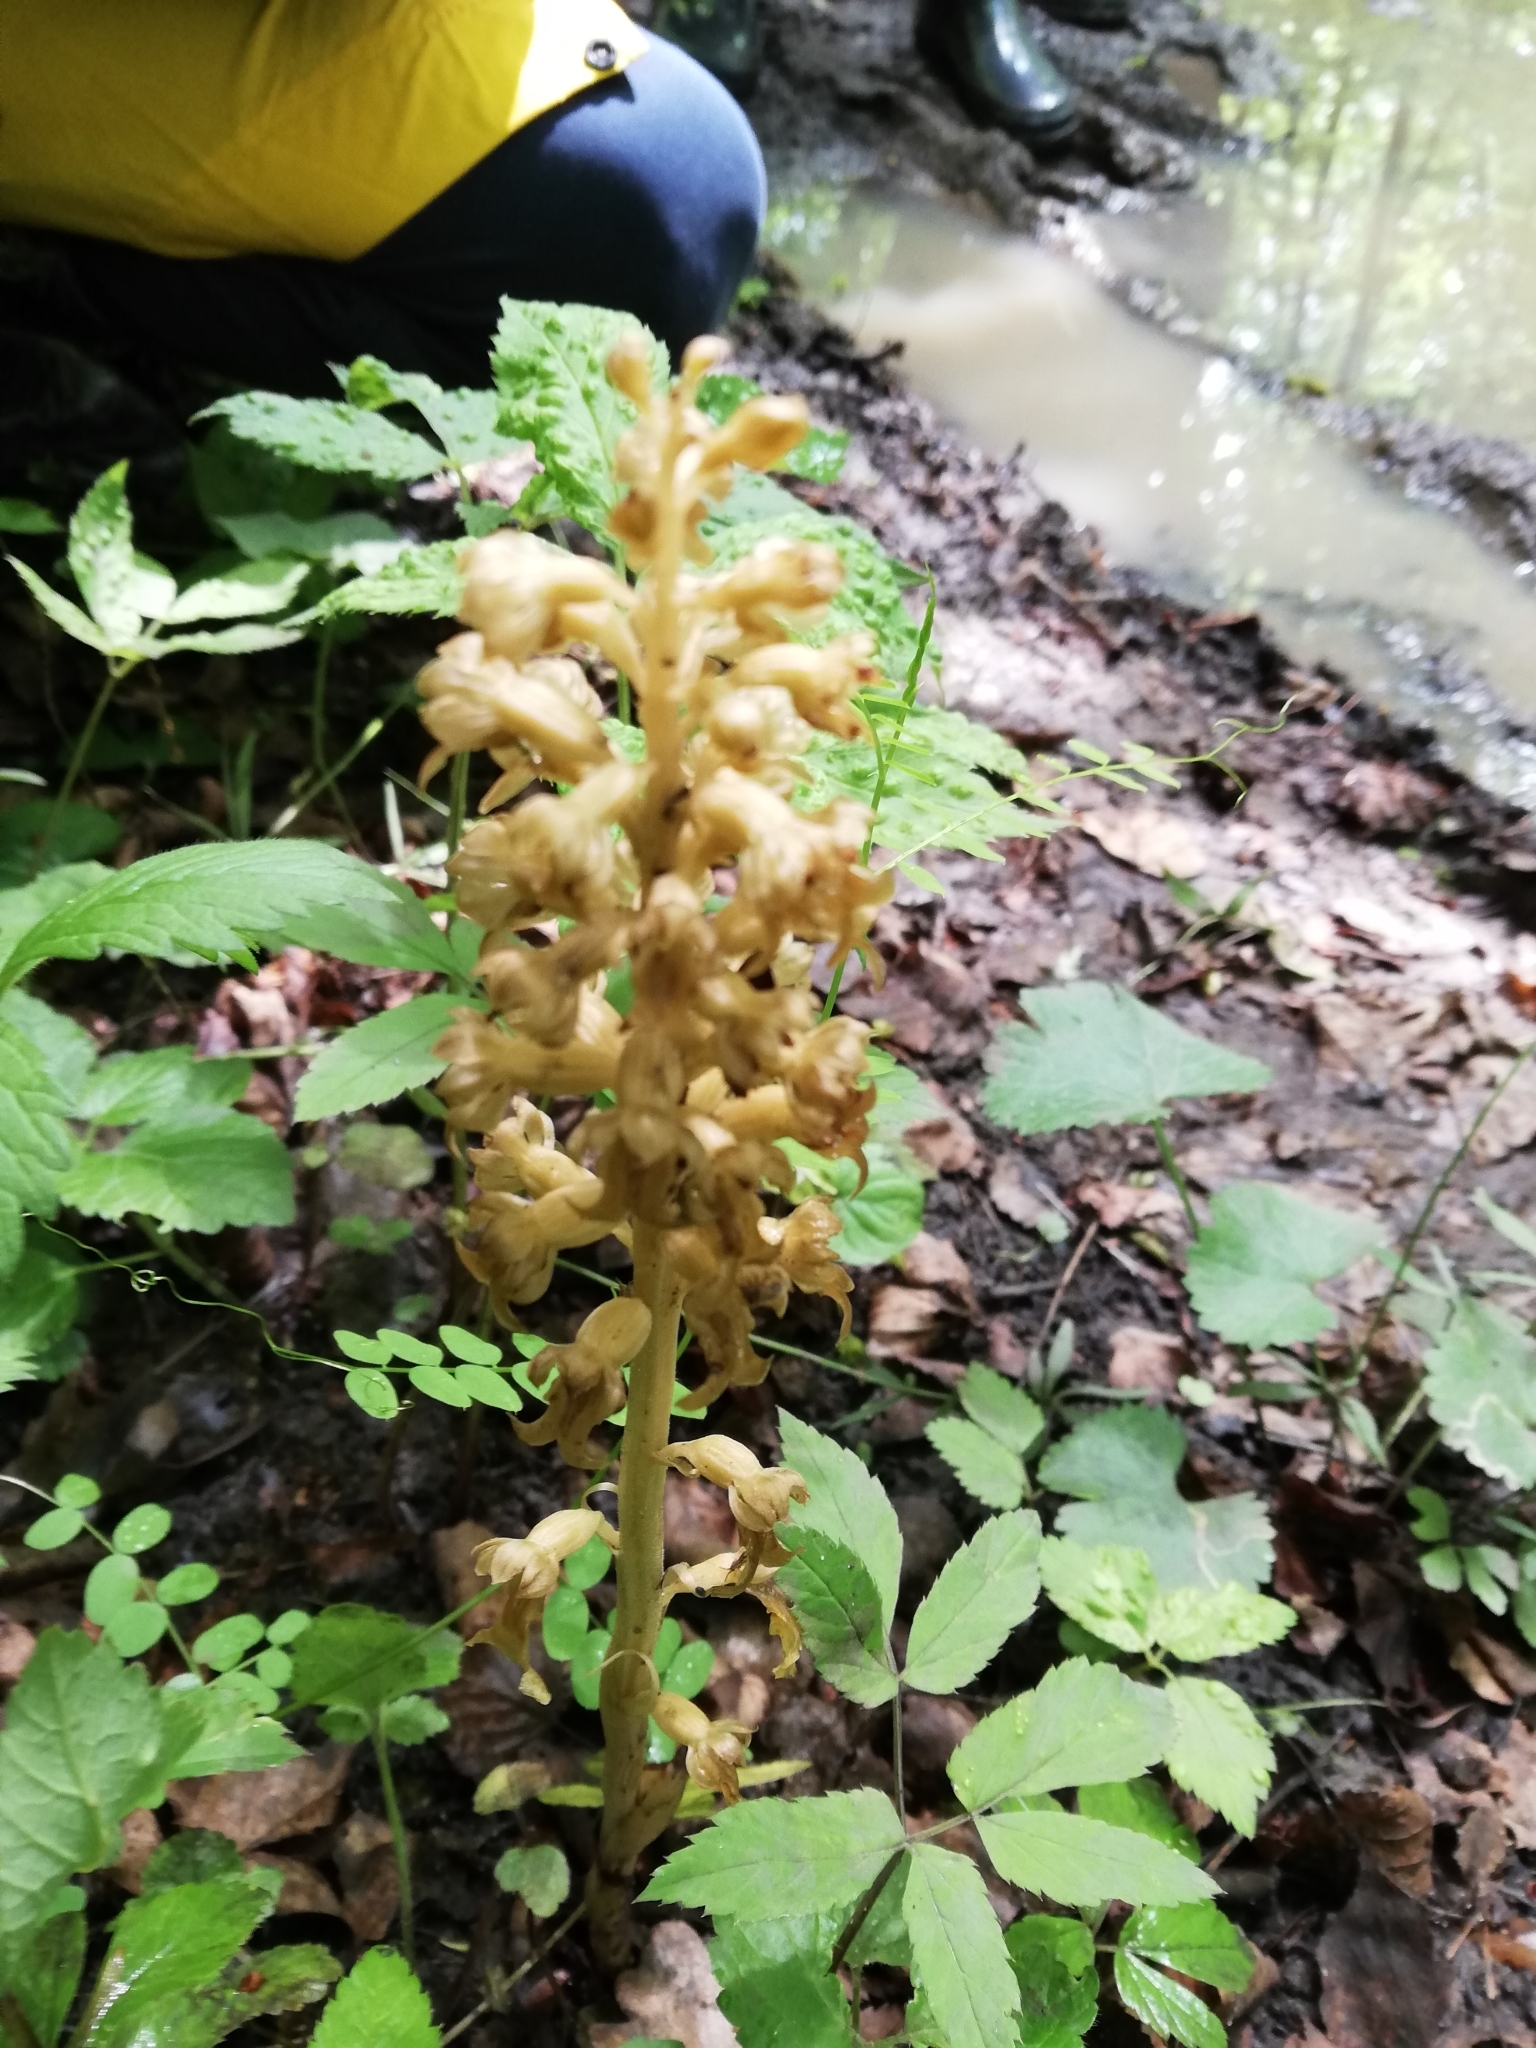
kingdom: Plantae
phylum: Tracheophyta
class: Liliopsida
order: Asparagales
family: Orchidaceae
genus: Neottia
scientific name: Neottia nidus-avis
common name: Bird's-nest orchid
